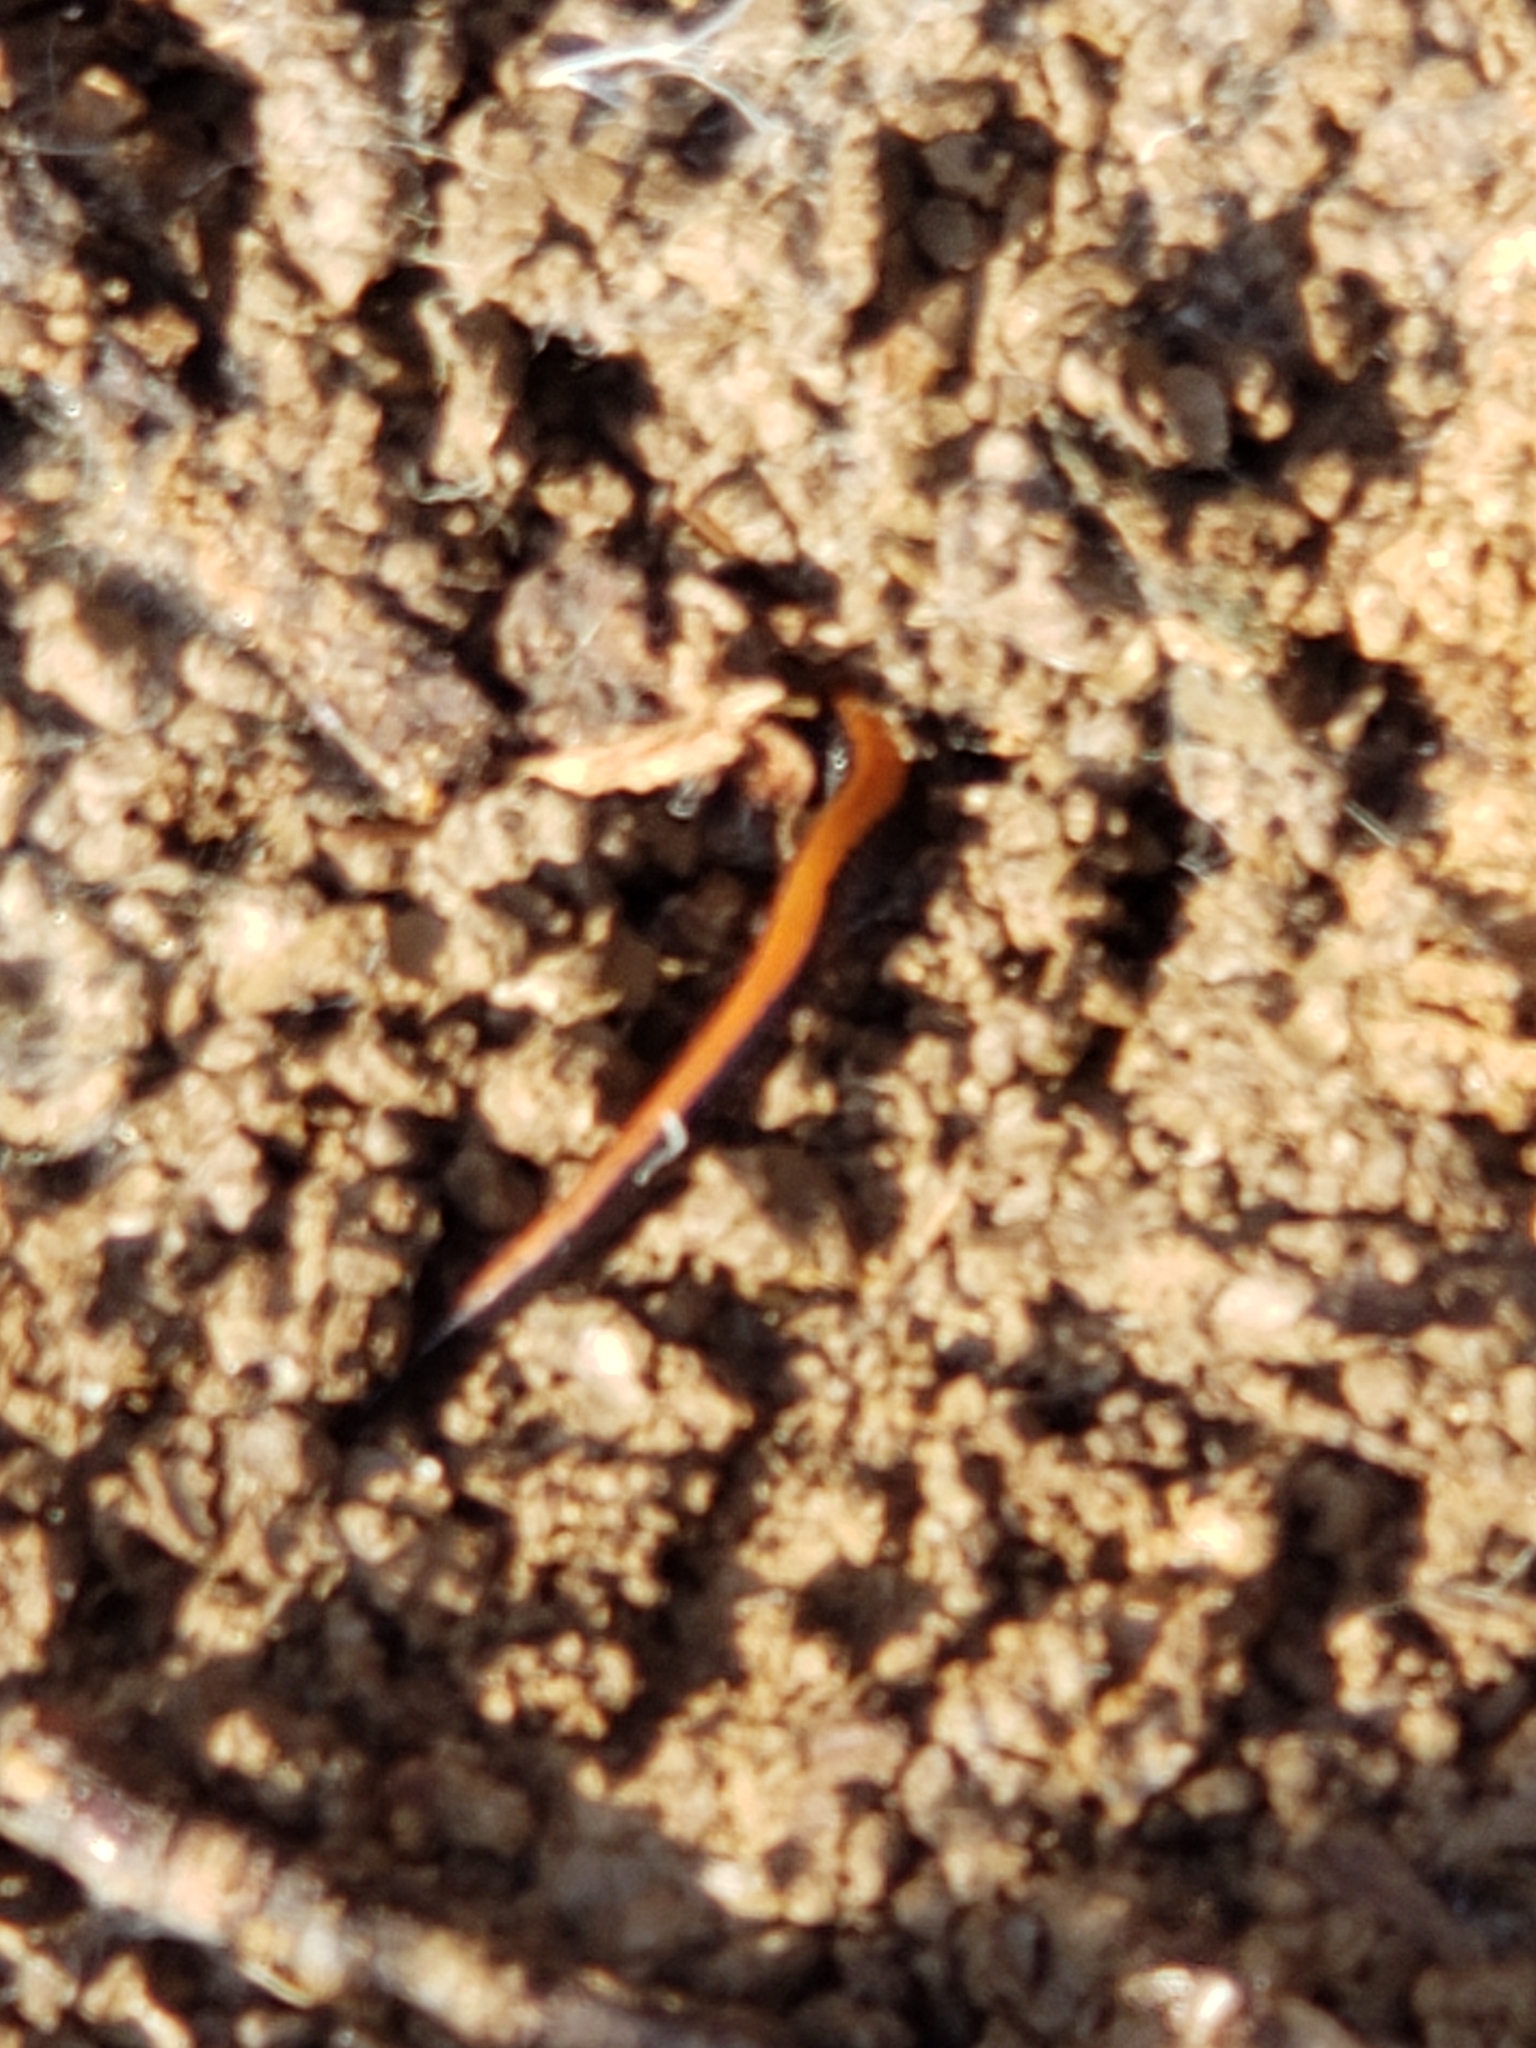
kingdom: Animalia
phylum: Chordata
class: Amphibia
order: Caudata
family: Plethodontidae
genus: Plethodon
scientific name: Plethodon cinereus
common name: Redback salamander
